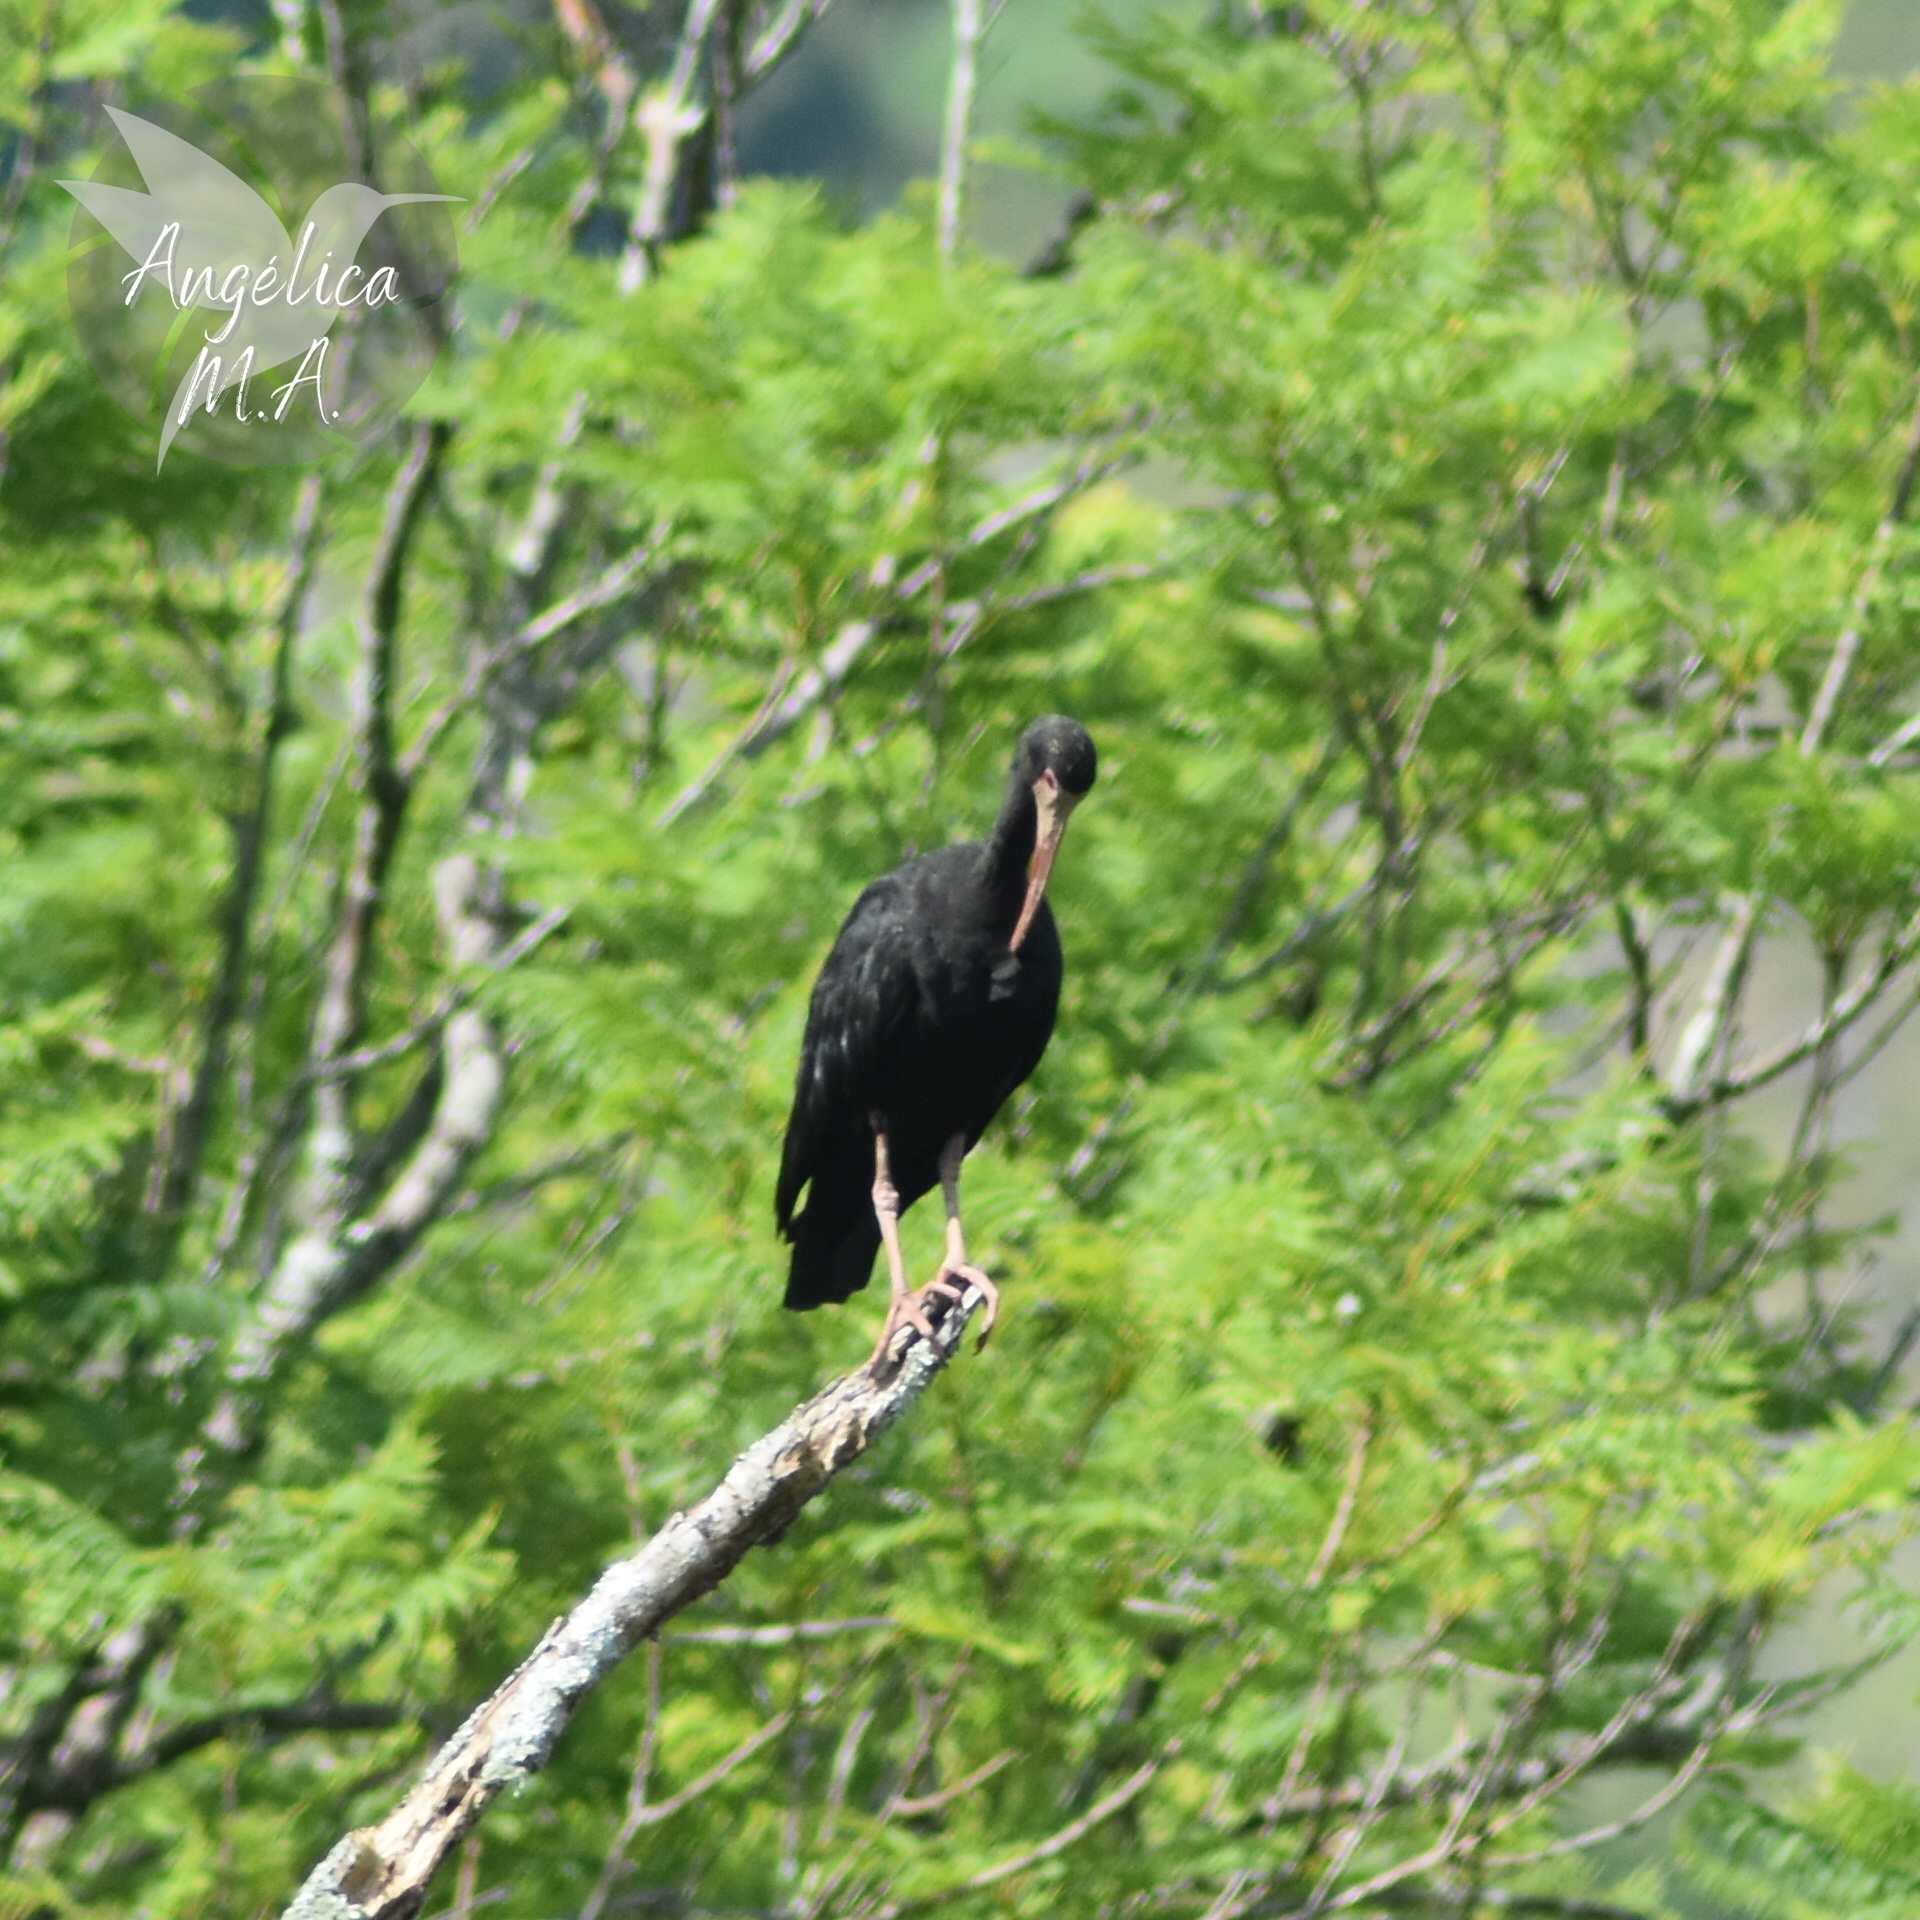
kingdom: Animalia
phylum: Chordata
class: Aves
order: Pelecaniformes
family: Threskiornithidae
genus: Phimosus
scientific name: Phimosus infuscatus
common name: Bare-faced ibis
